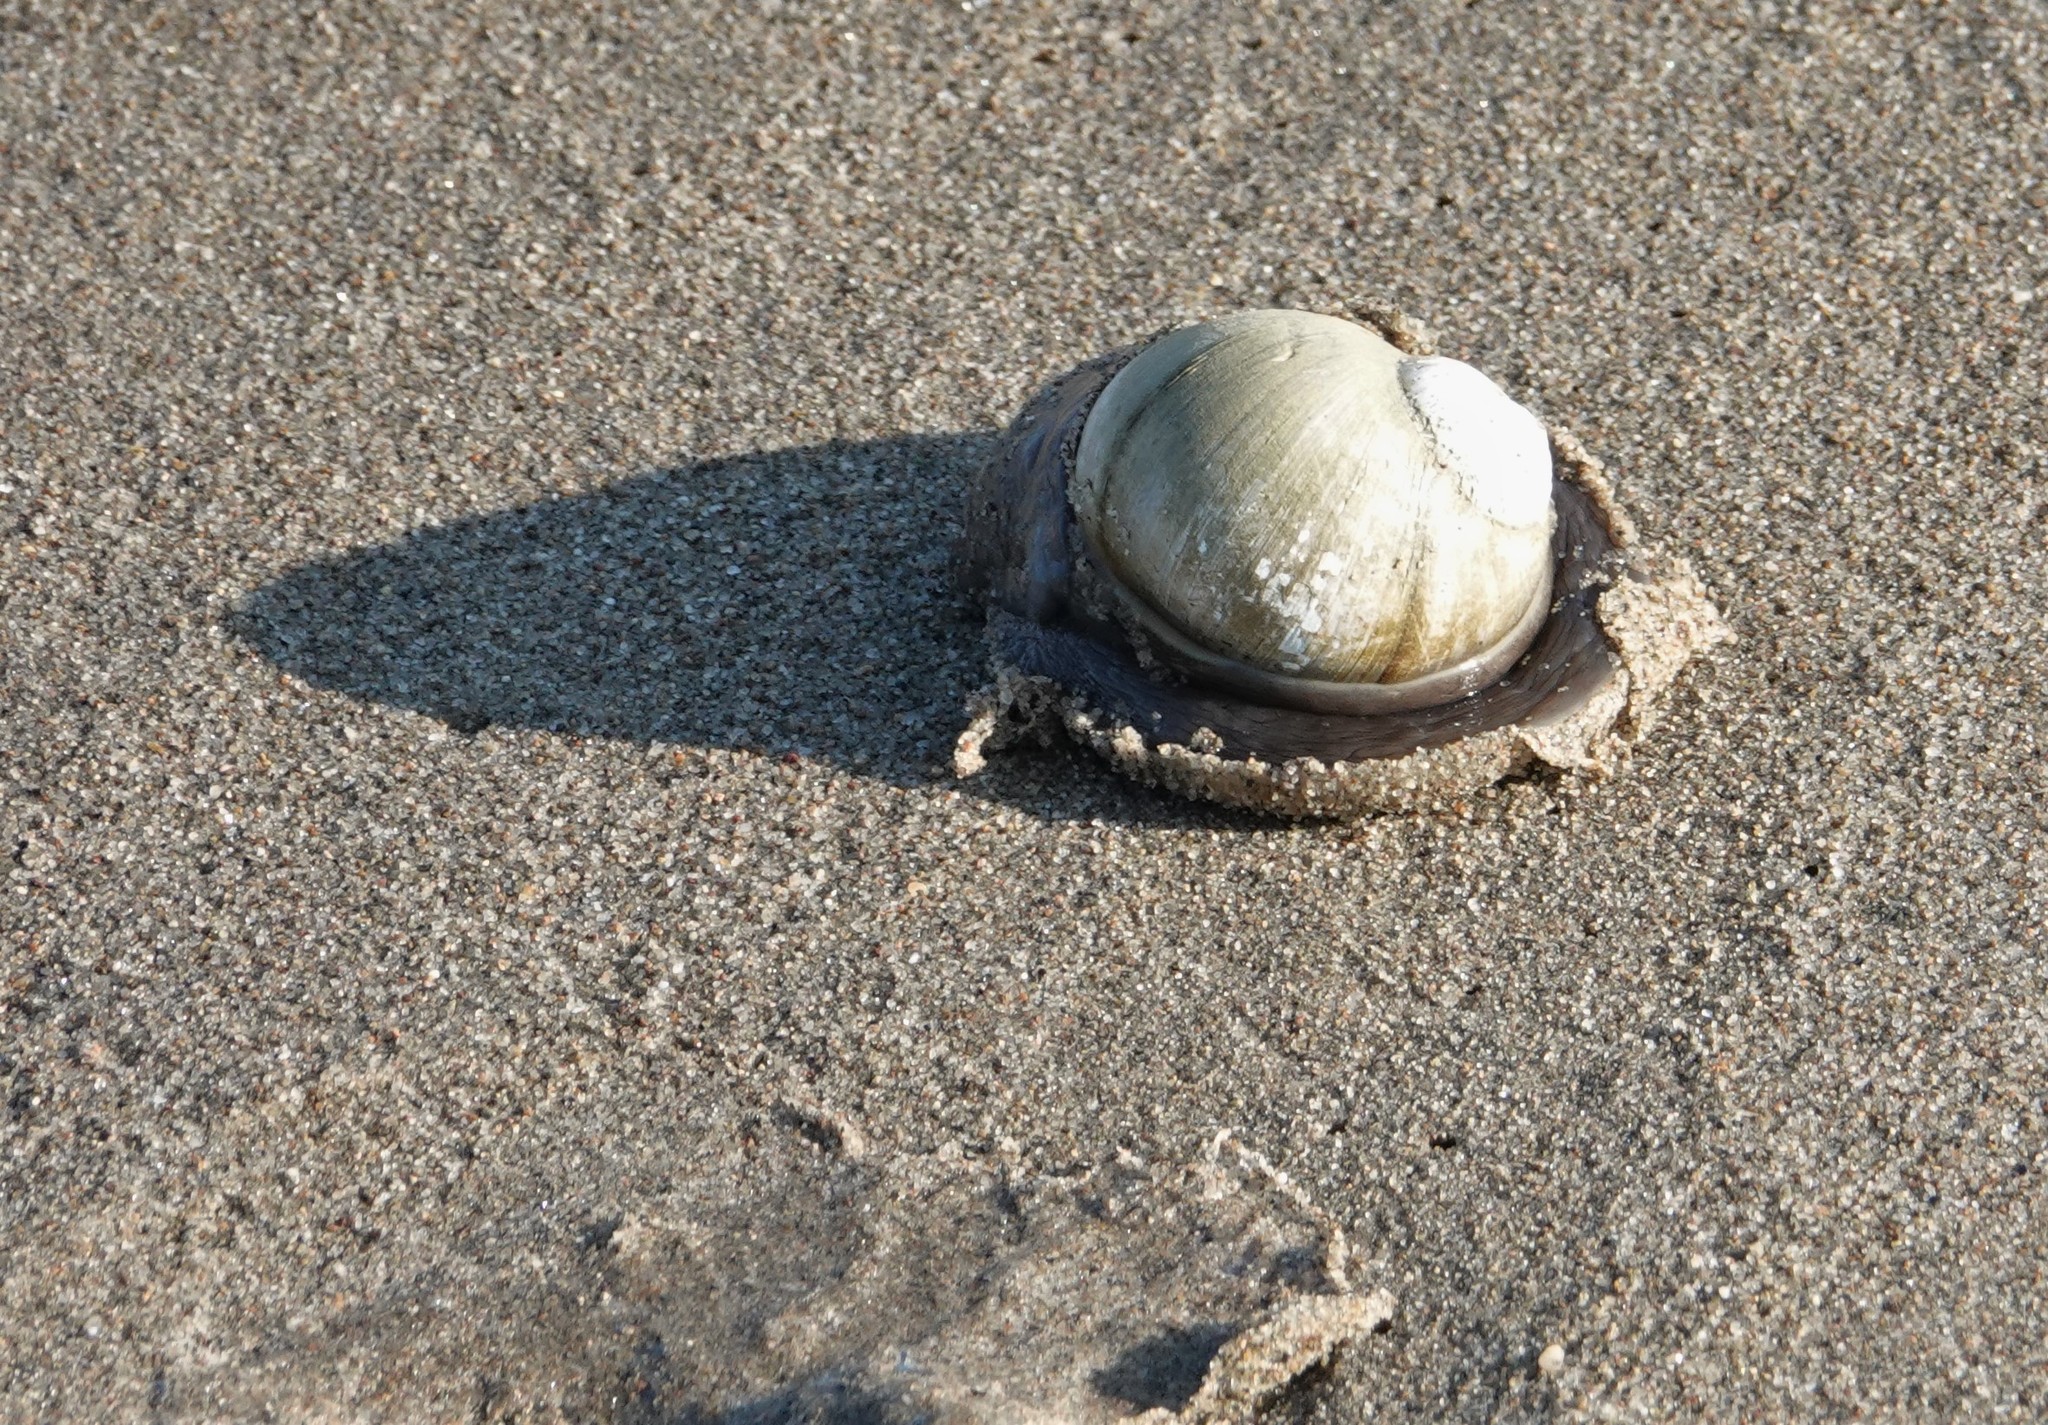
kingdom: Animalia
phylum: Mollusca
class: Gastropoda
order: Littorinimorpha
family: Naticidae
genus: Euspira
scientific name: Euspira heros
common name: Common northern moonsnail
